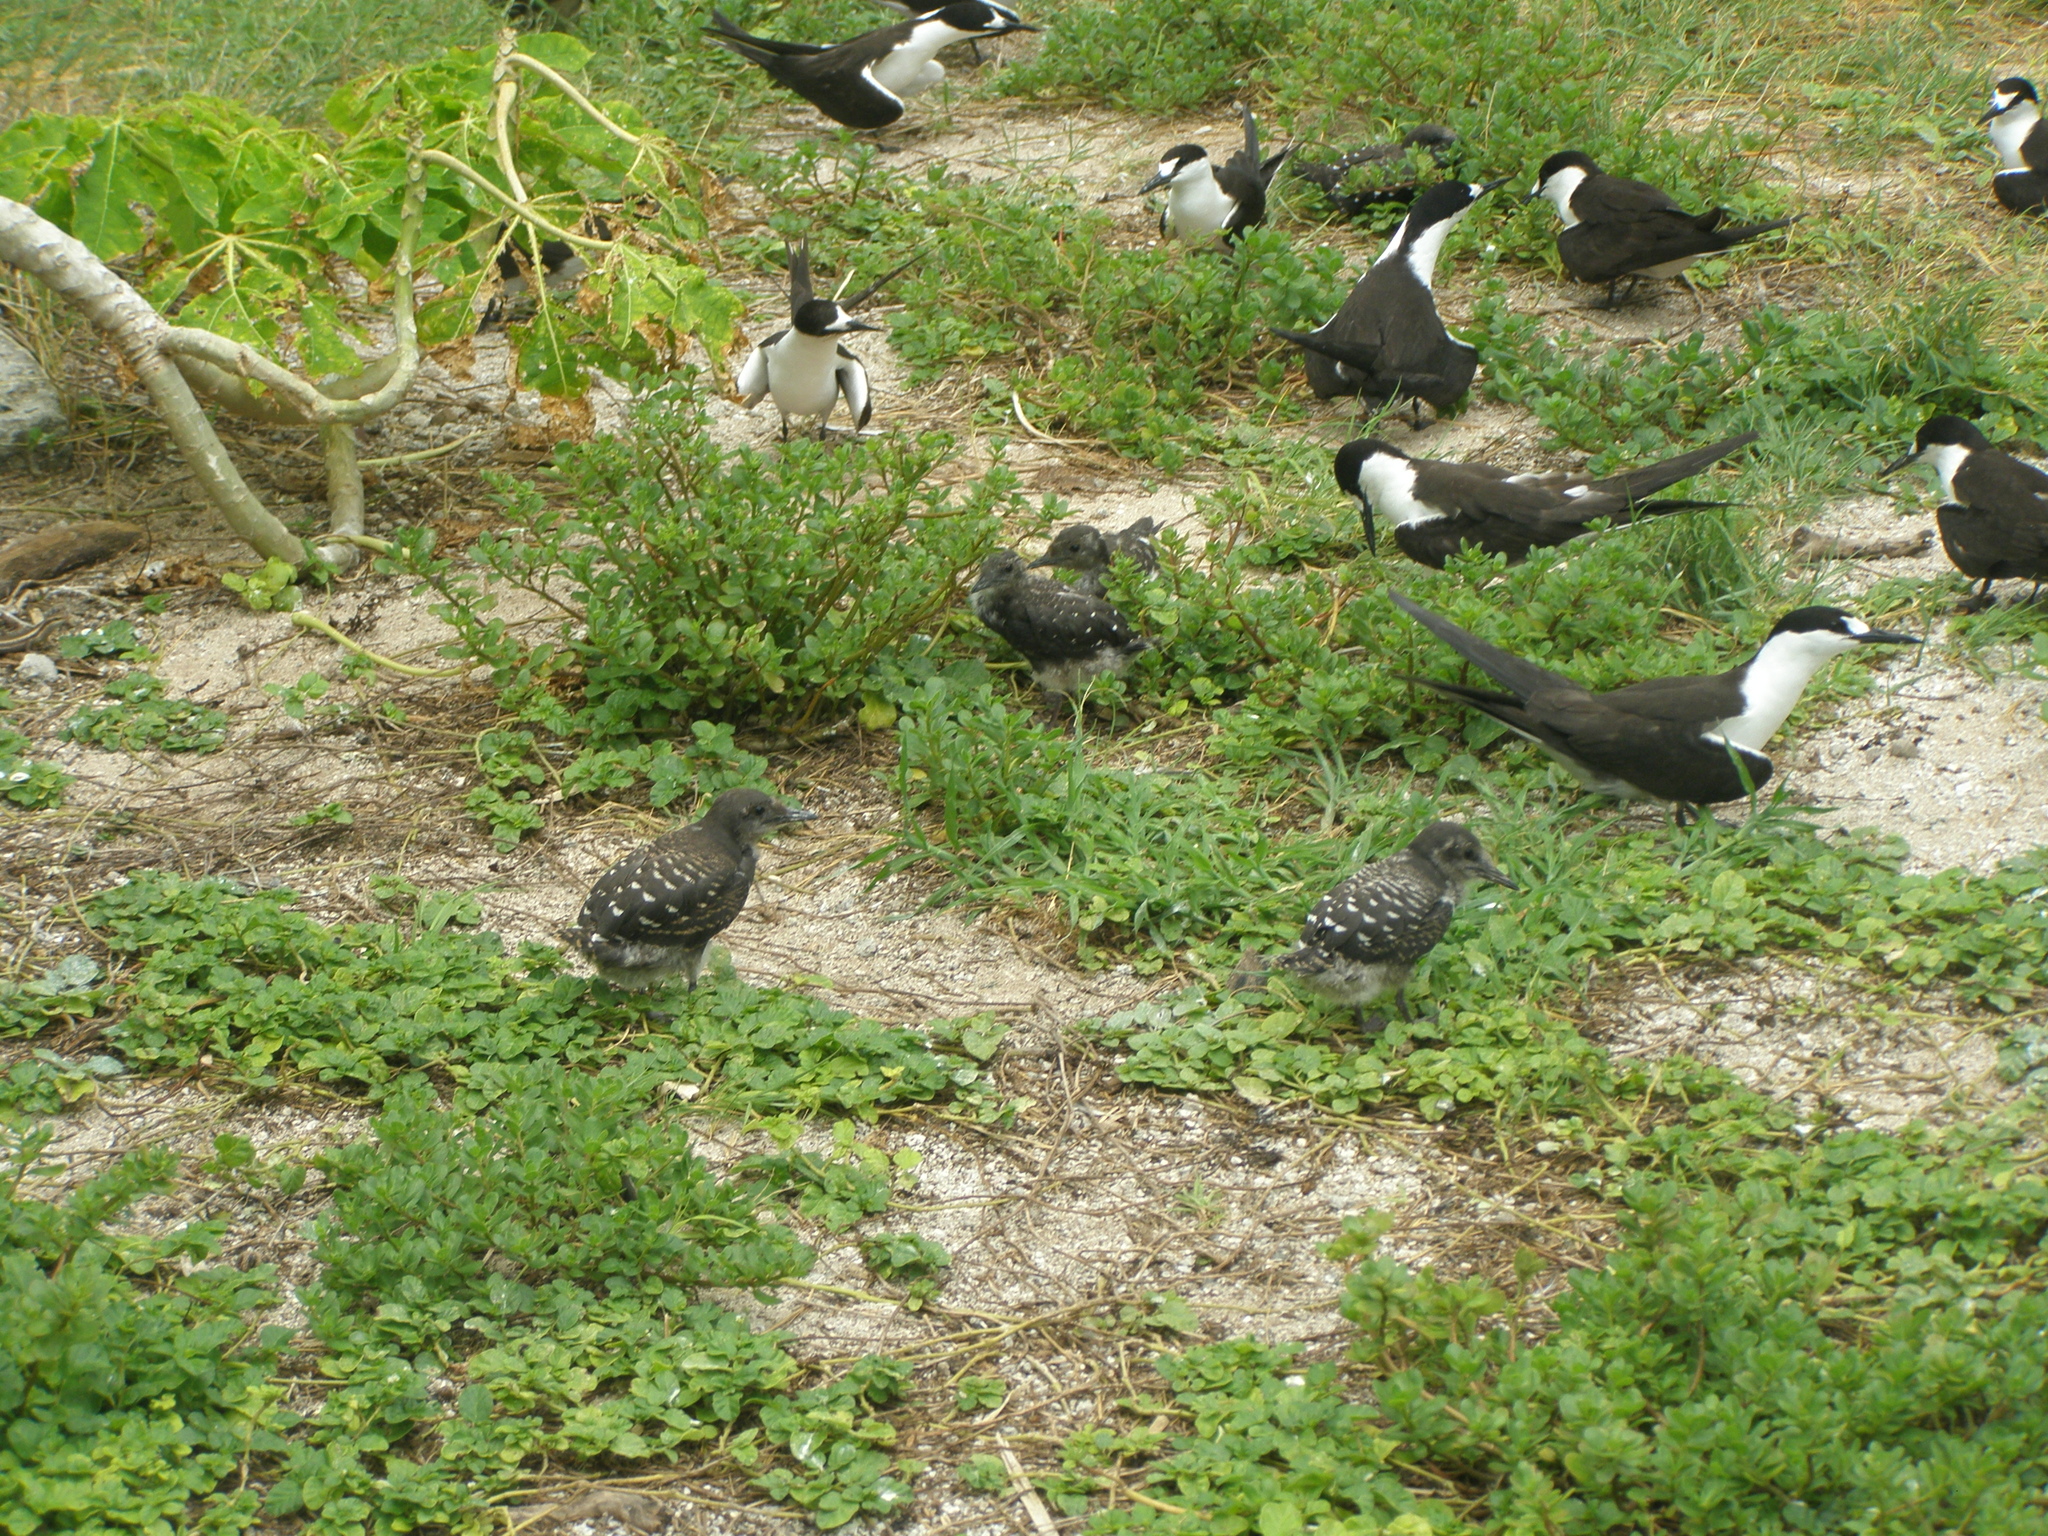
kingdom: Animalia
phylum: Chordata
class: Aves
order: Charadriiformes
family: Laridae
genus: Onychoprion
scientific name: Onychoprion fuscatus
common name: Sooty tern
